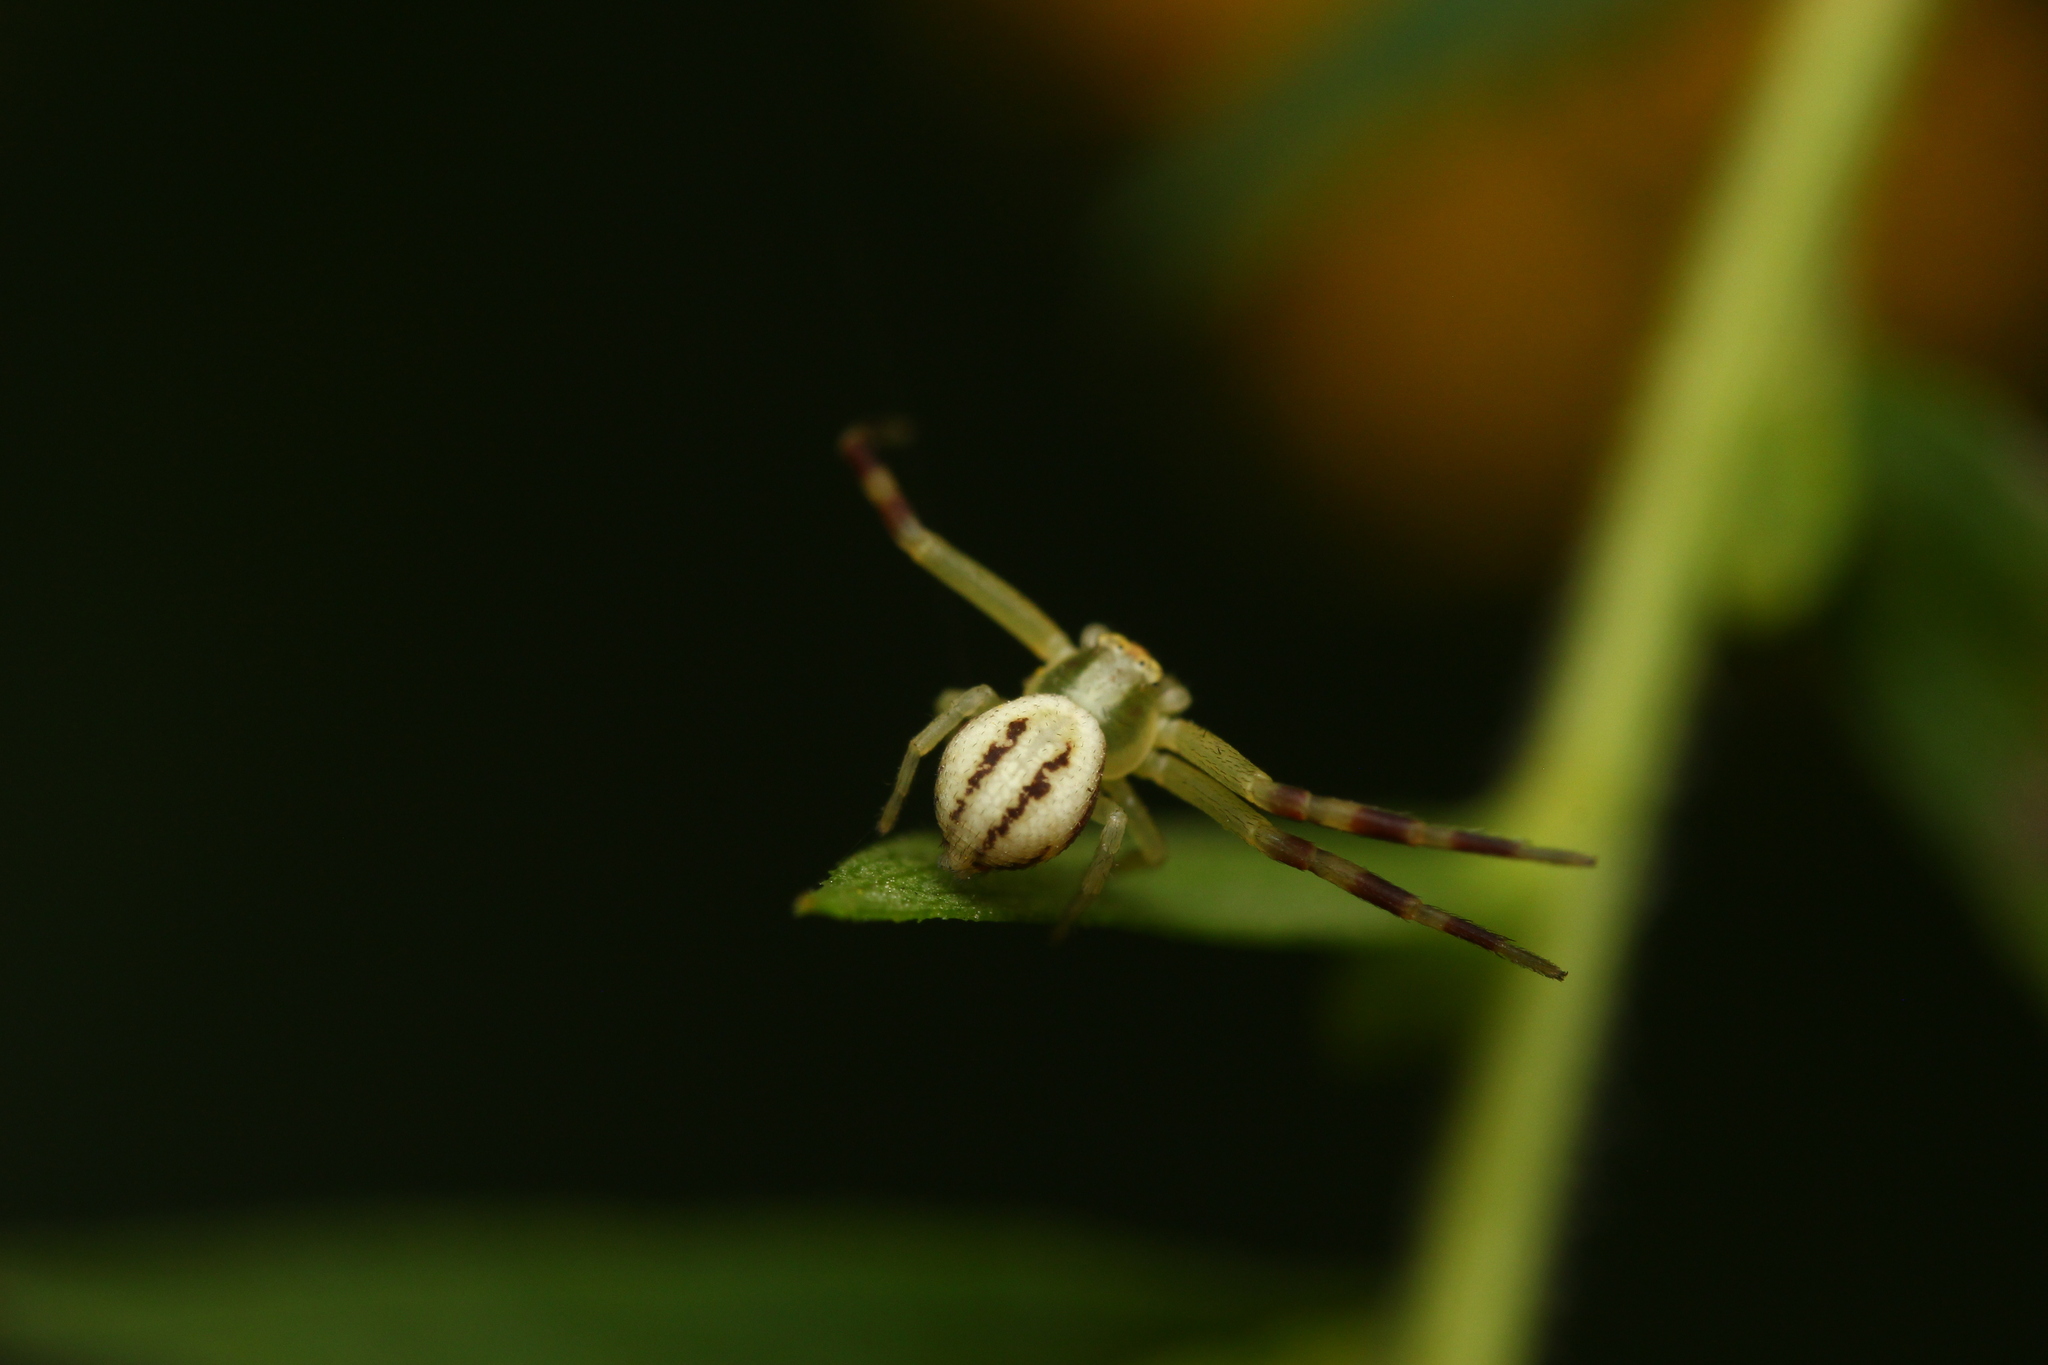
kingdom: Animalia
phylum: Arthropoda
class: Arachnida
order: Araneae
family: Thomisidae
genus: Misumena
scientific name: Misumena vatia
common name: Goldenrod crab spider
